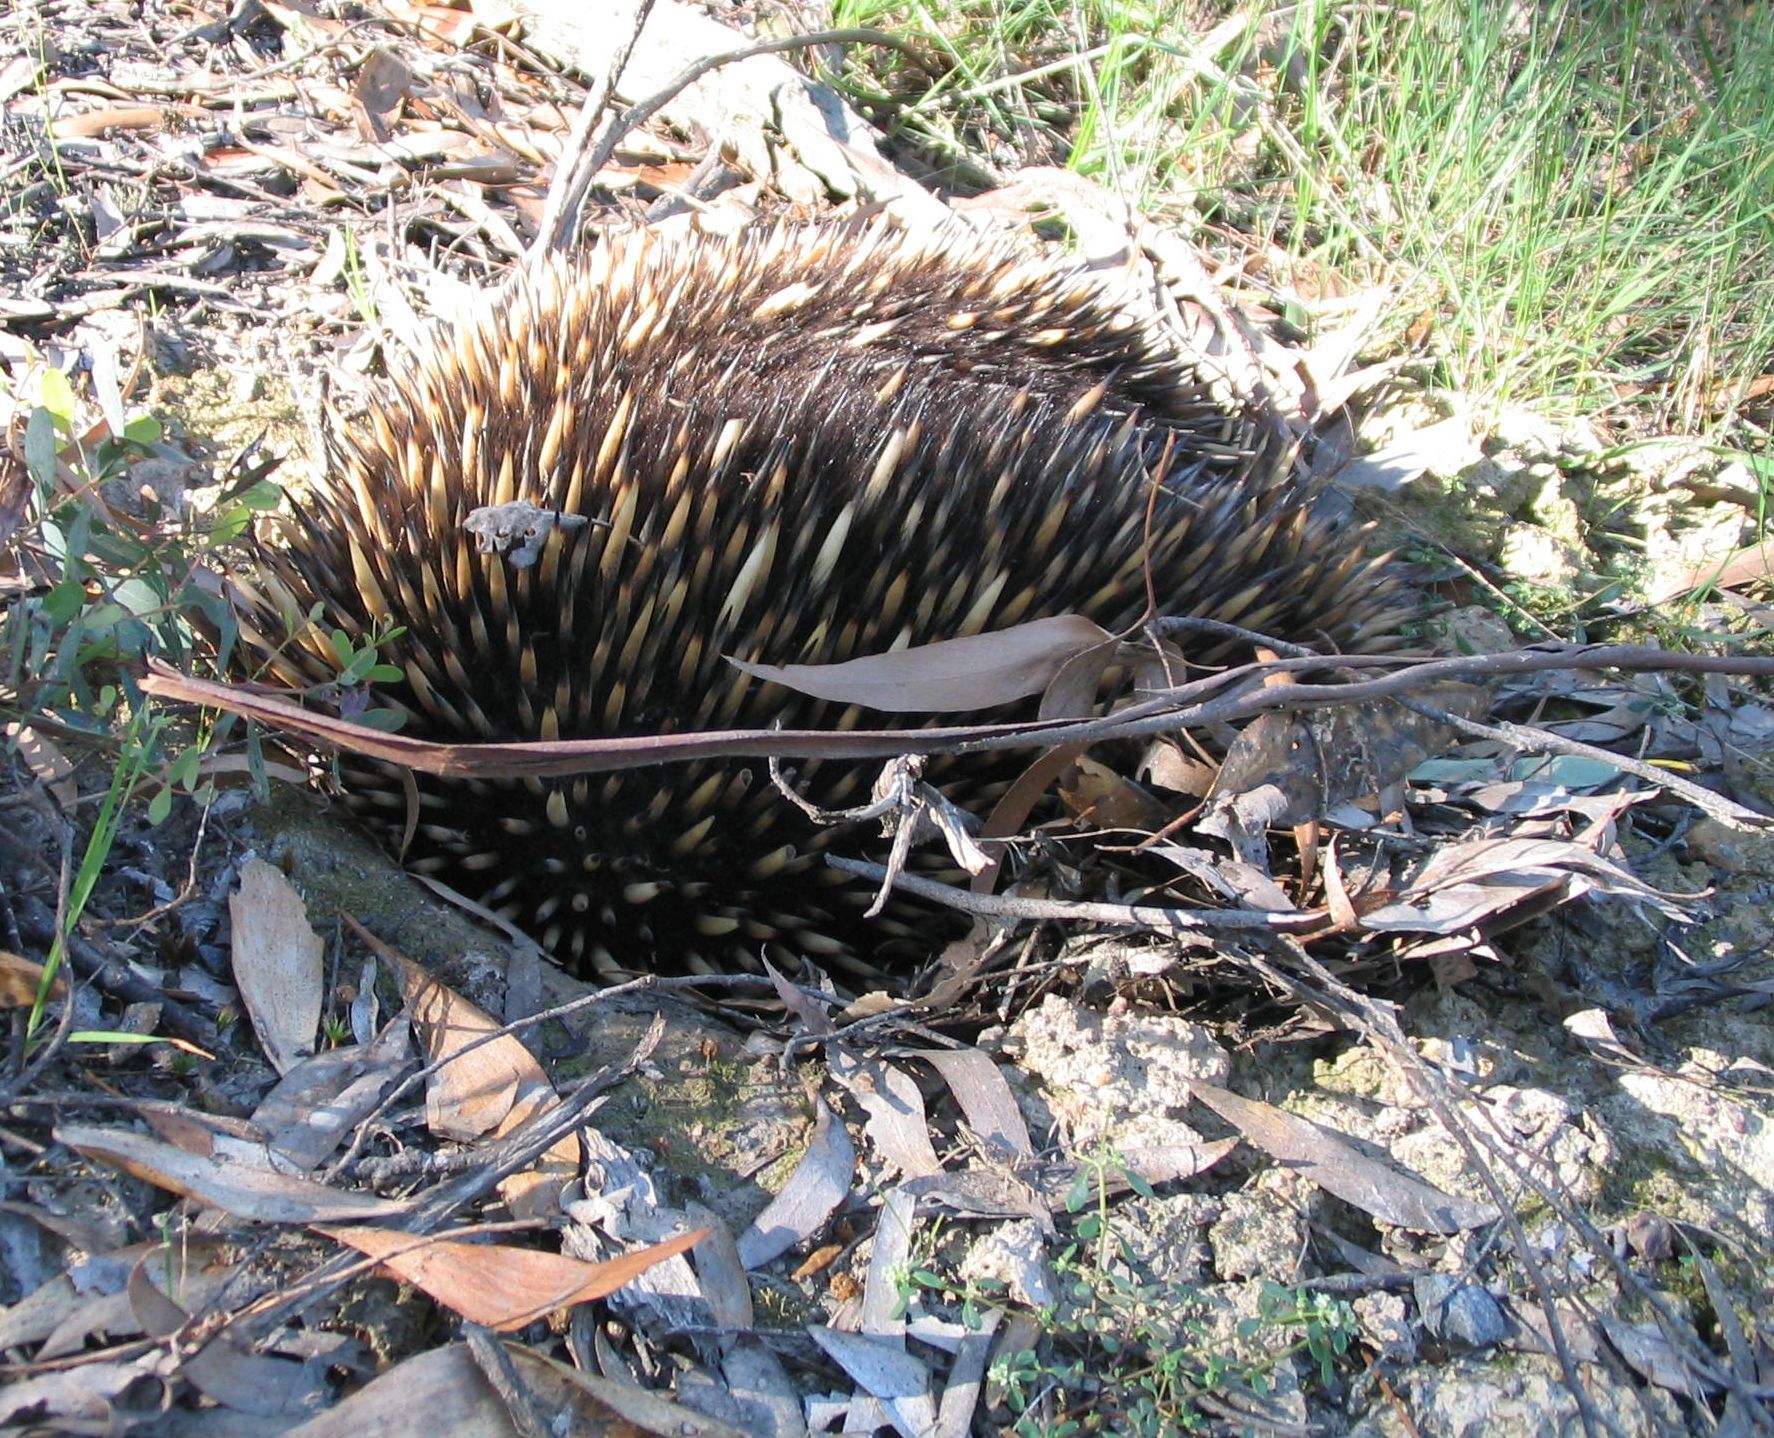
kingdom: Animalia
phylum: Chordata
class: Mammalia
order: Monotremata
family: Tachyglossidae
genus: Tachyglossus
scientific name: Tachyglossus aculeatus
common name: Short-beaked echidna
